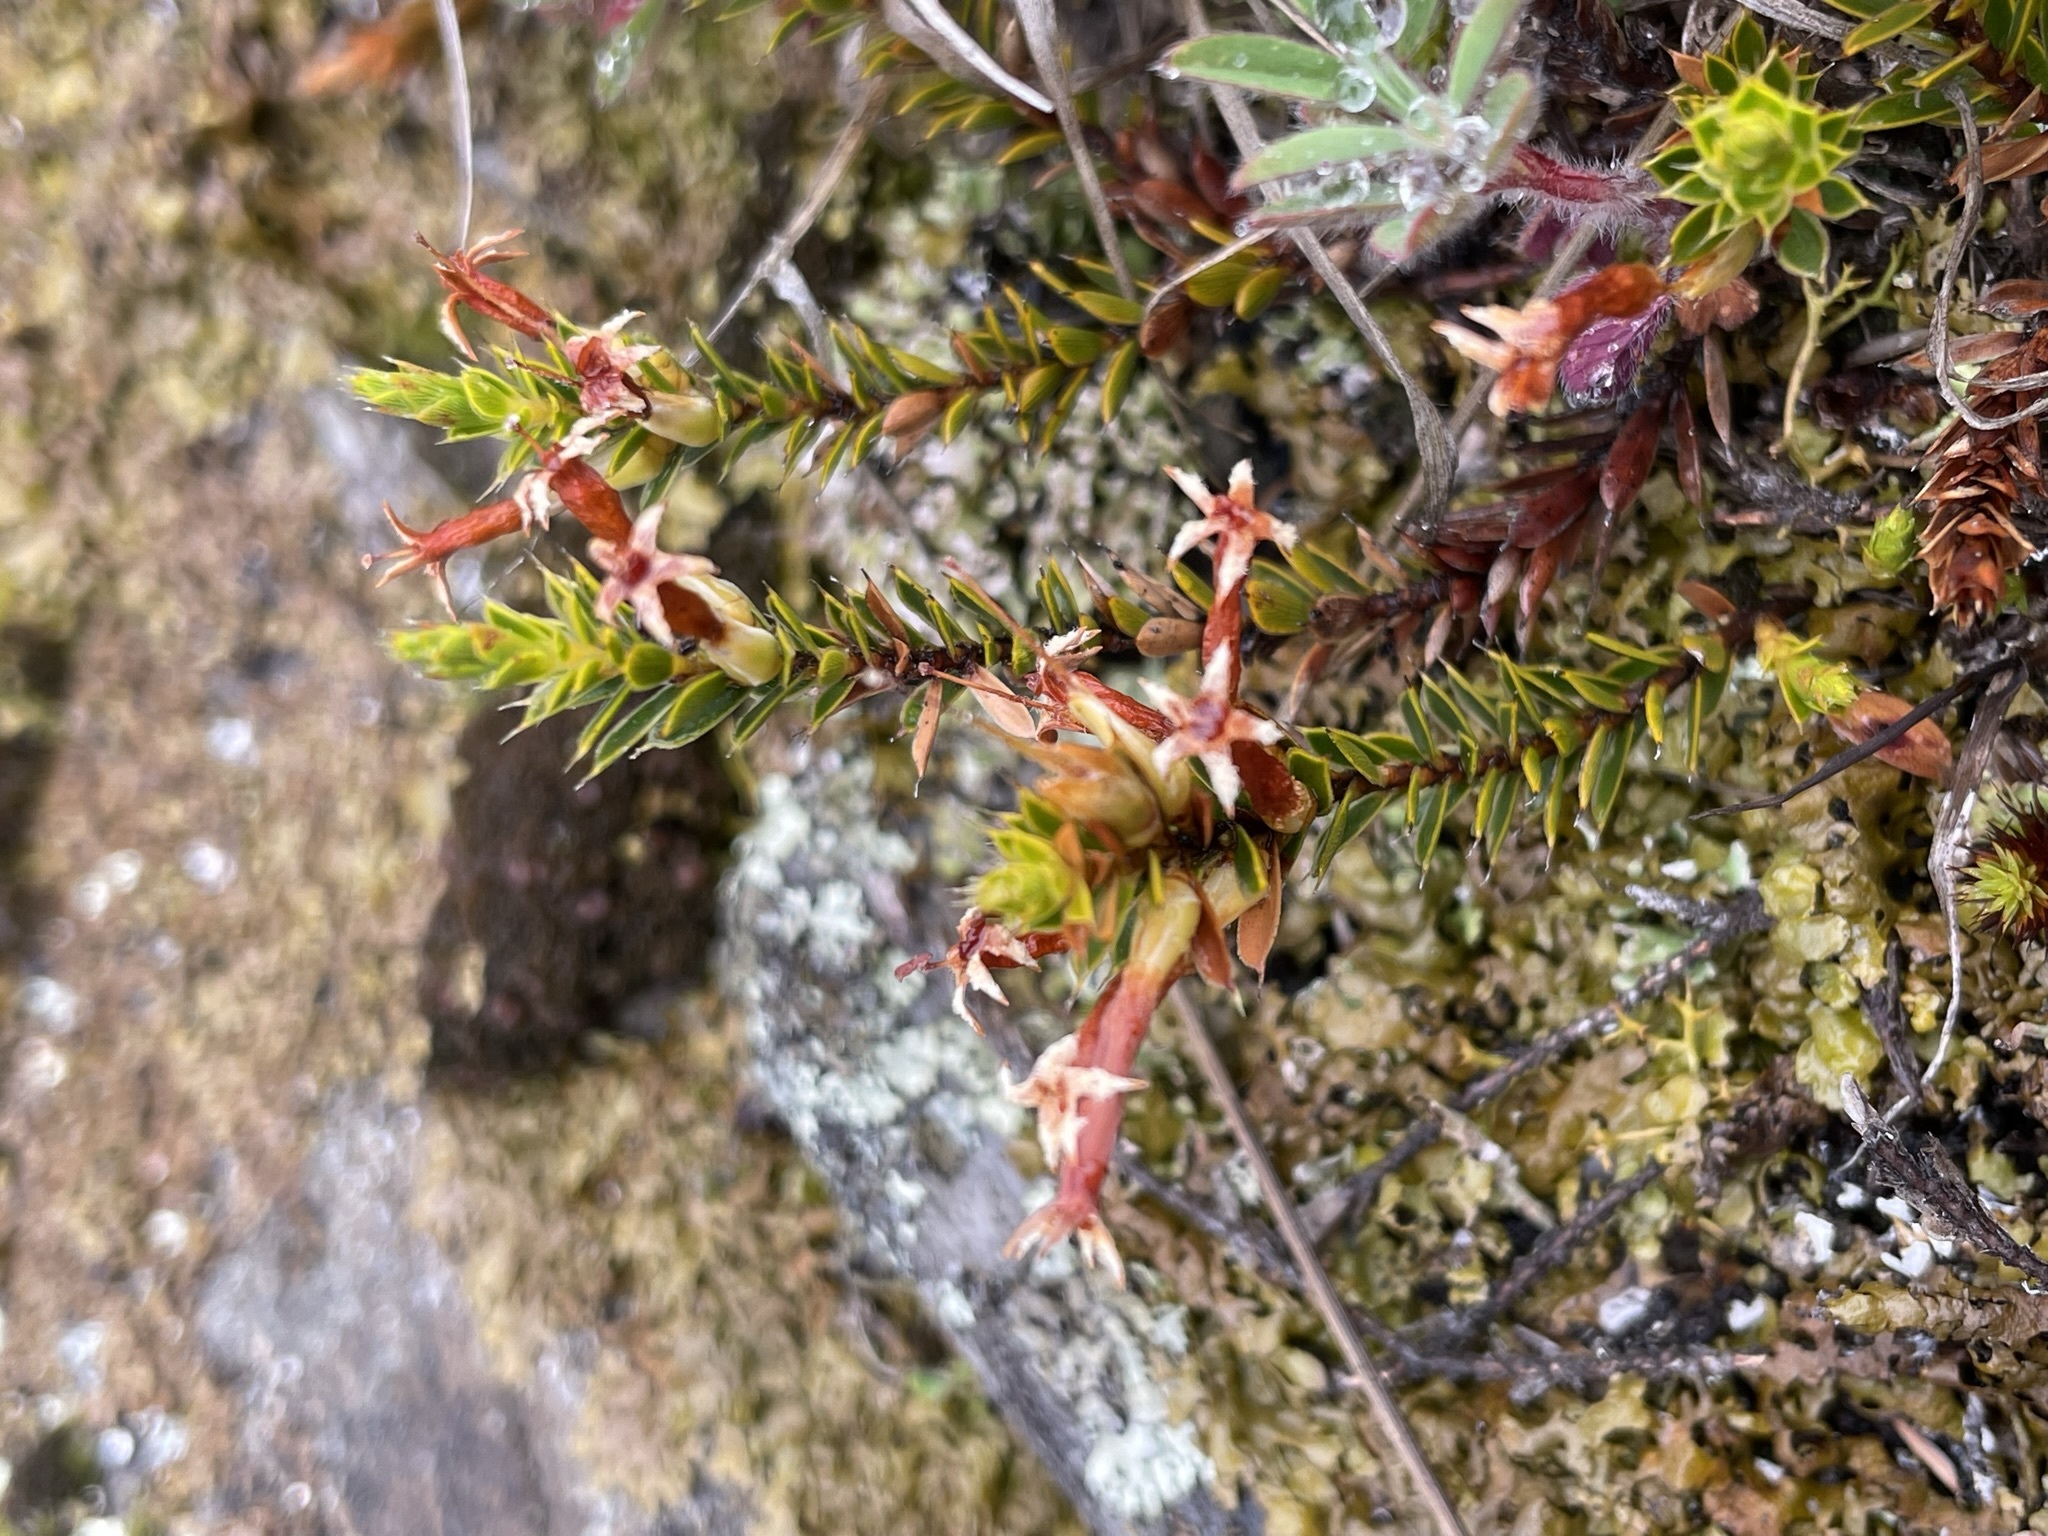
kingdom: Plantae
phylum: Tracheophyta
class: Magnoliopsida
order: Ericales
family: Ericaceae
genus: Styphelia
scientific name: Styphelia nesophila
